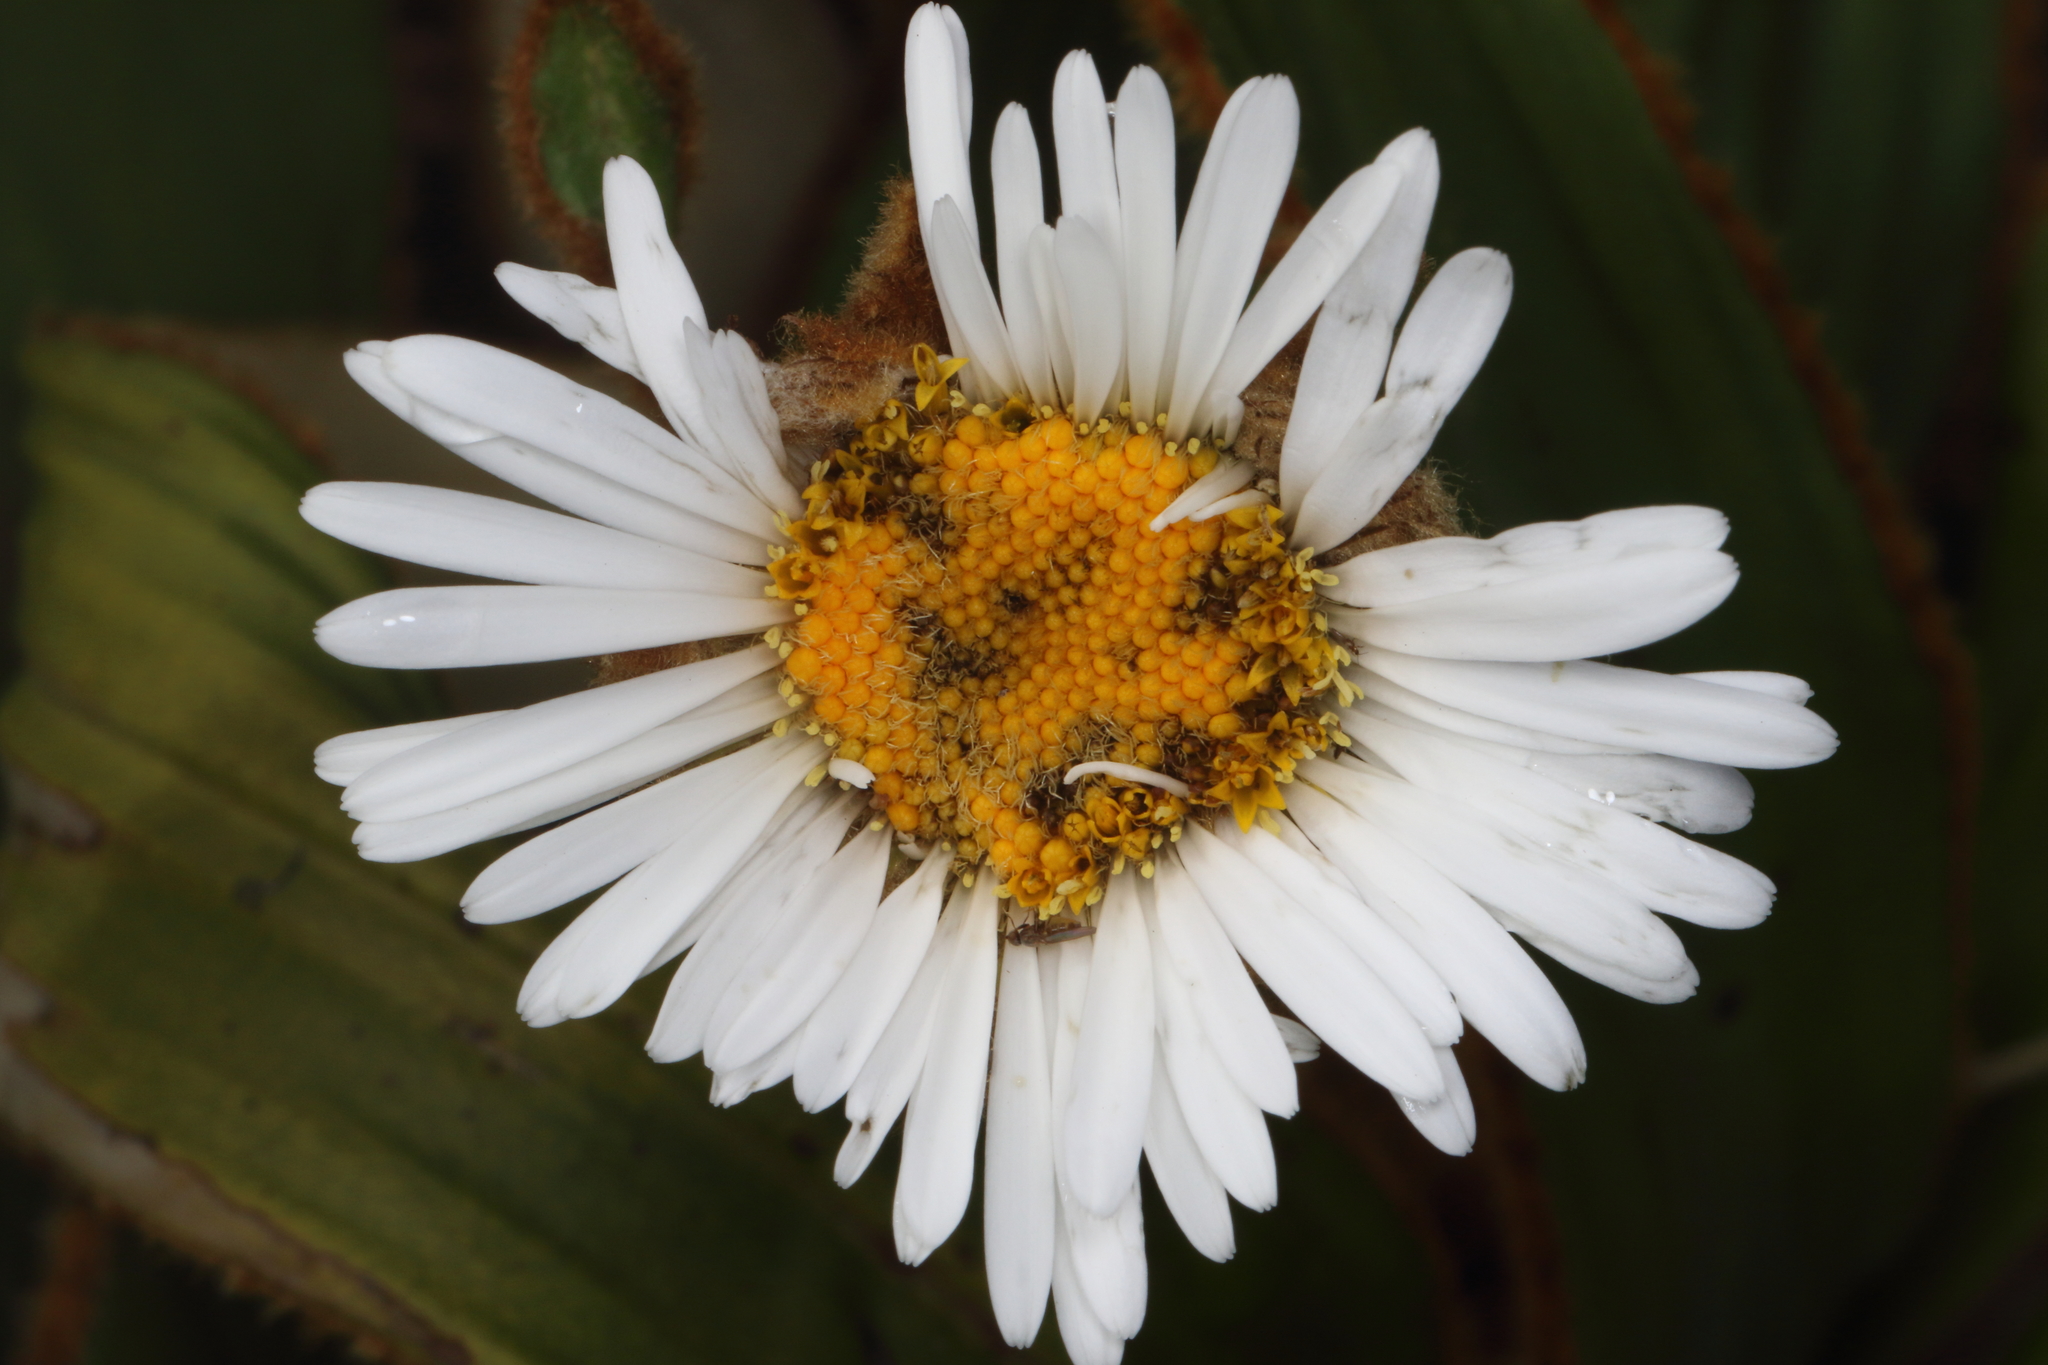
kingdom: Plantae
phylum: Tracheophyta
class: Magnoliopsida
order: Asterales
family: Asteraceae
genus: Celmisia
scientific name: Celmisia traversii
